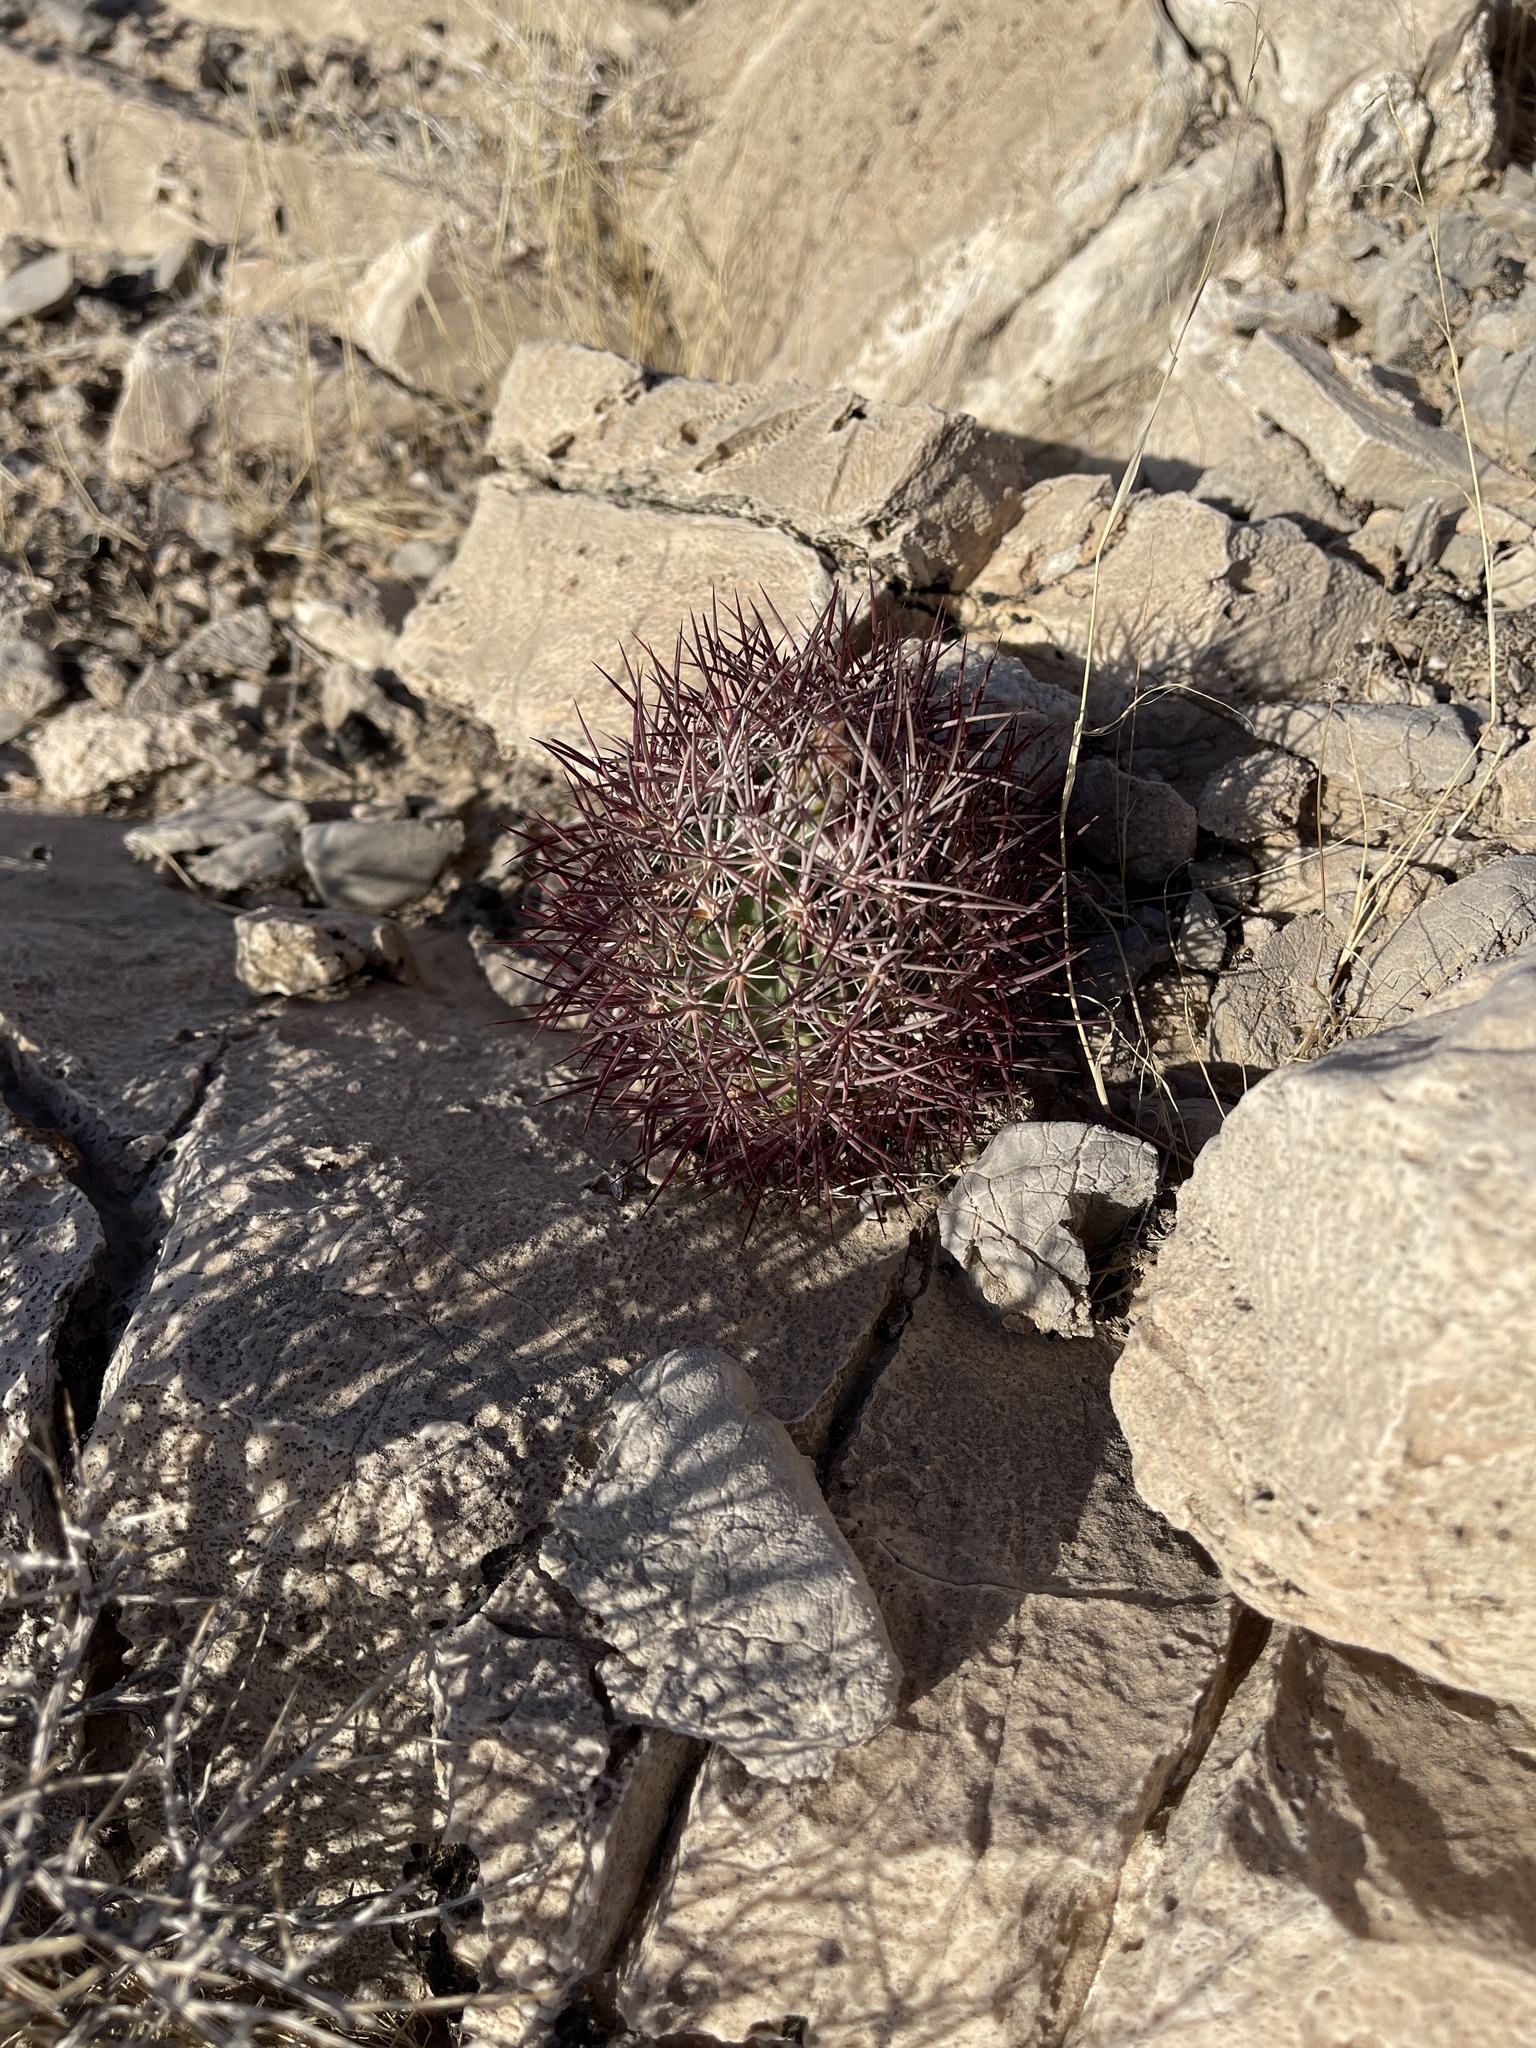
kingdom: Plantae
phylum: Tracheophyta
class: Magnoliopsida
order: Caryophyllales
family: Cactaceae
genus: Sclerocactus
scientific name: Sclerocactus johnsonii
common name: Eight-spine fishhook cactus
